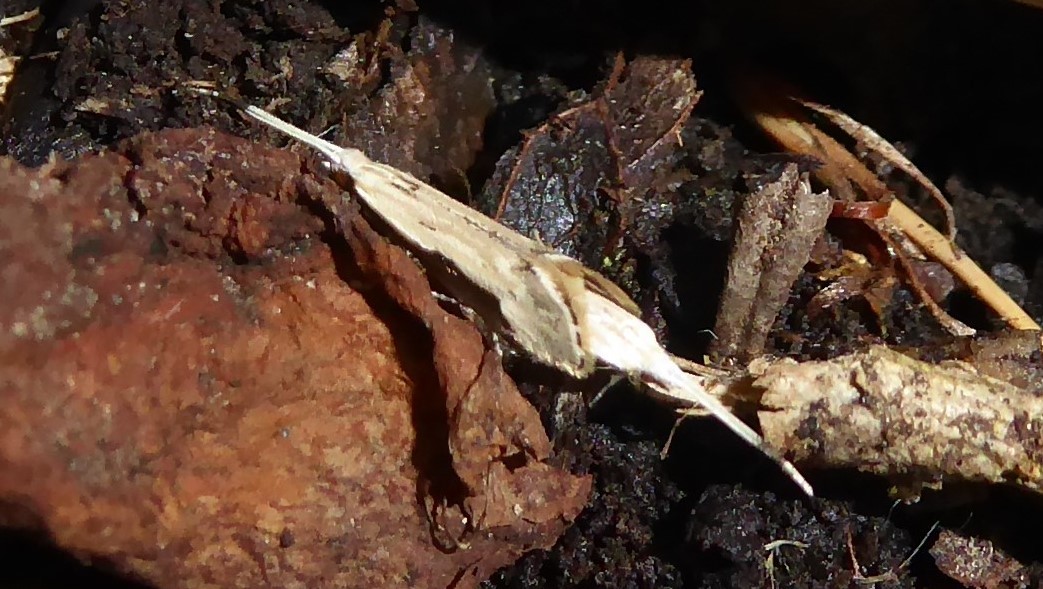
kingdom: Animalia
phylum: Arthropoda
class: Insecta
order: Lepidoptera
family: Tineidae
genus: Sagephora
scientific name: Sagephora phortegella
